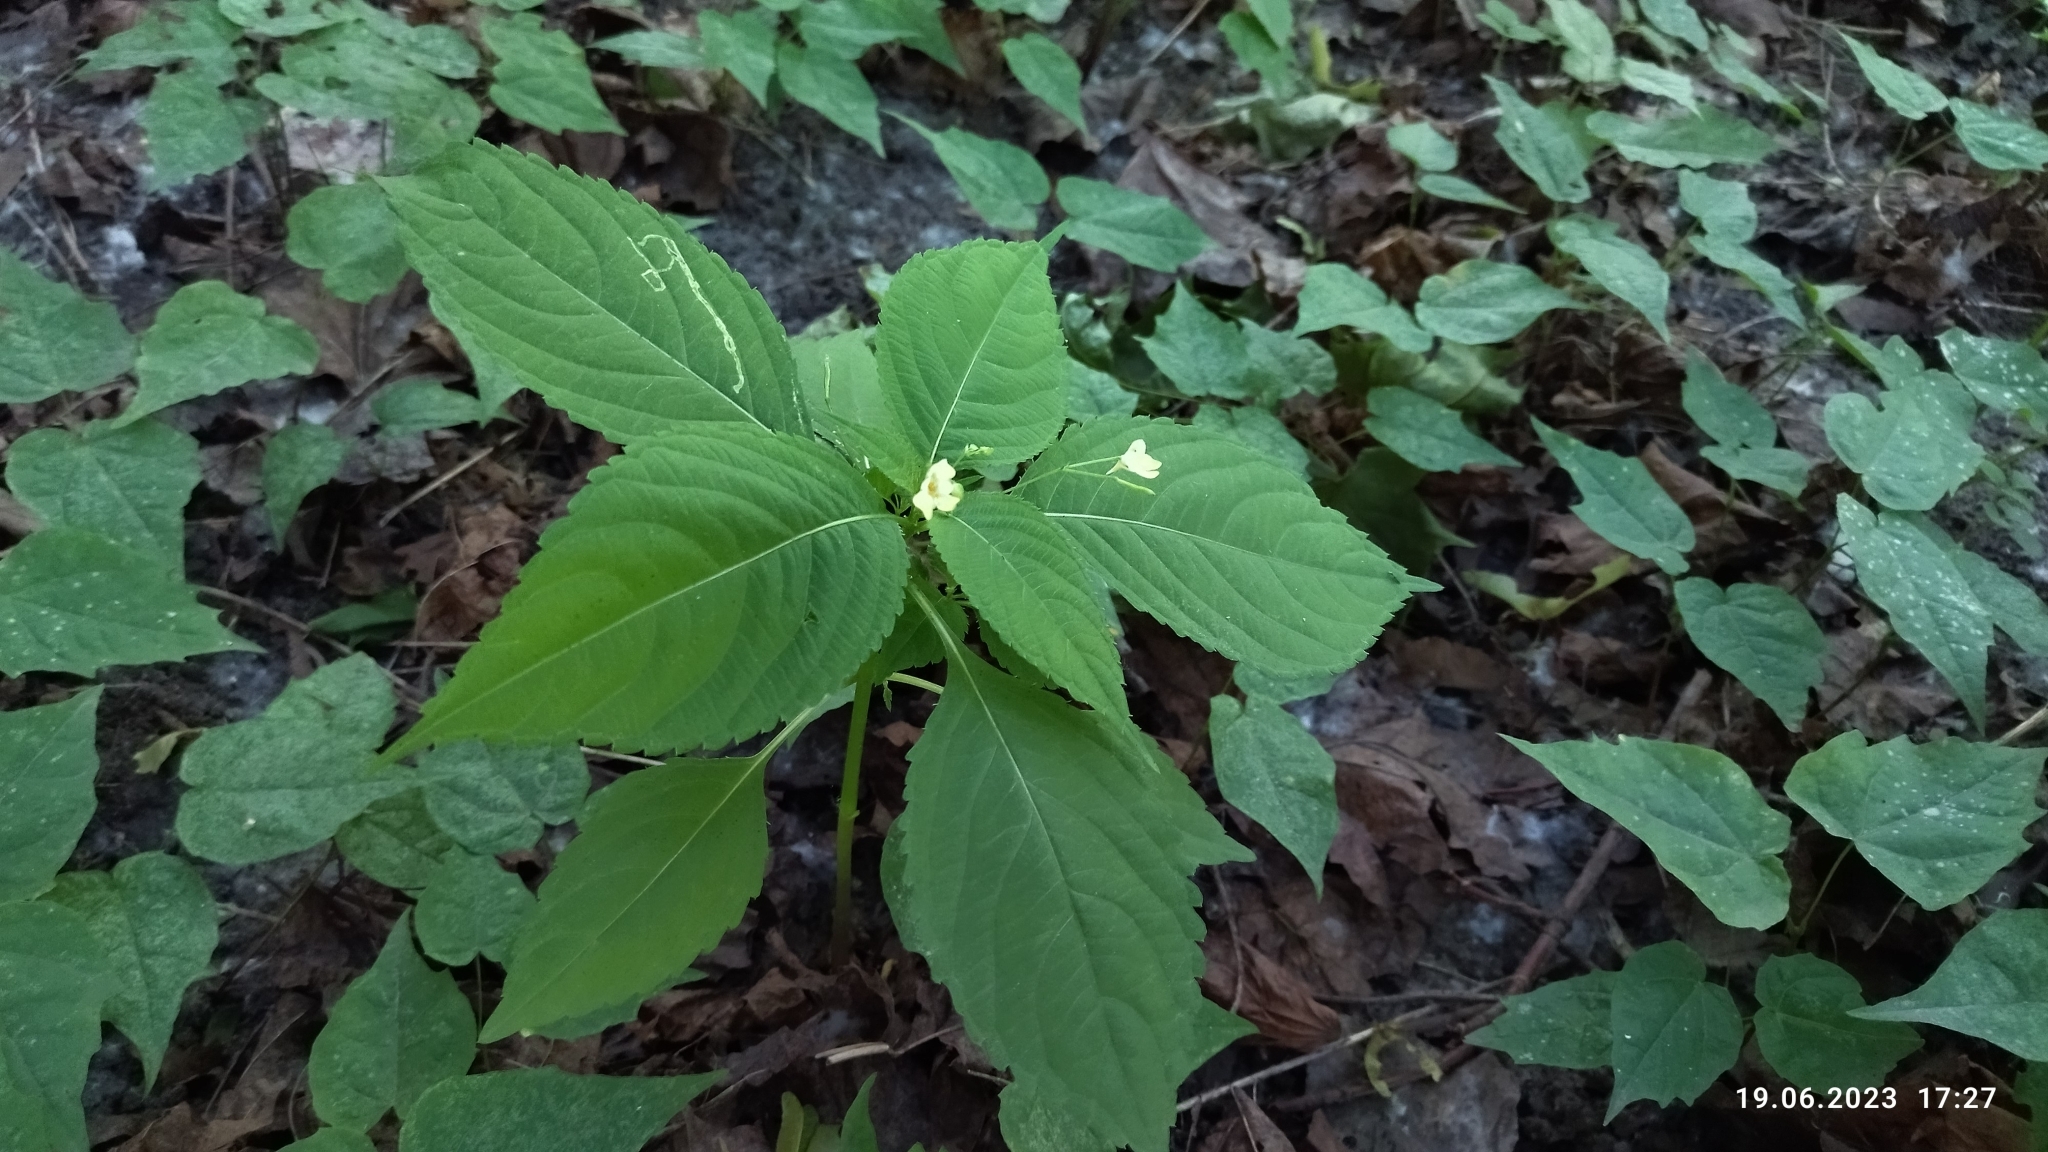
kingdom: Plantae
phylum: Tracheophyta
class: Magnoliopsida
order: Ericales
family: Balsaminaceae
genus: Impatiens
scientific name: Impatiens parviflora
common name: Small balsam
